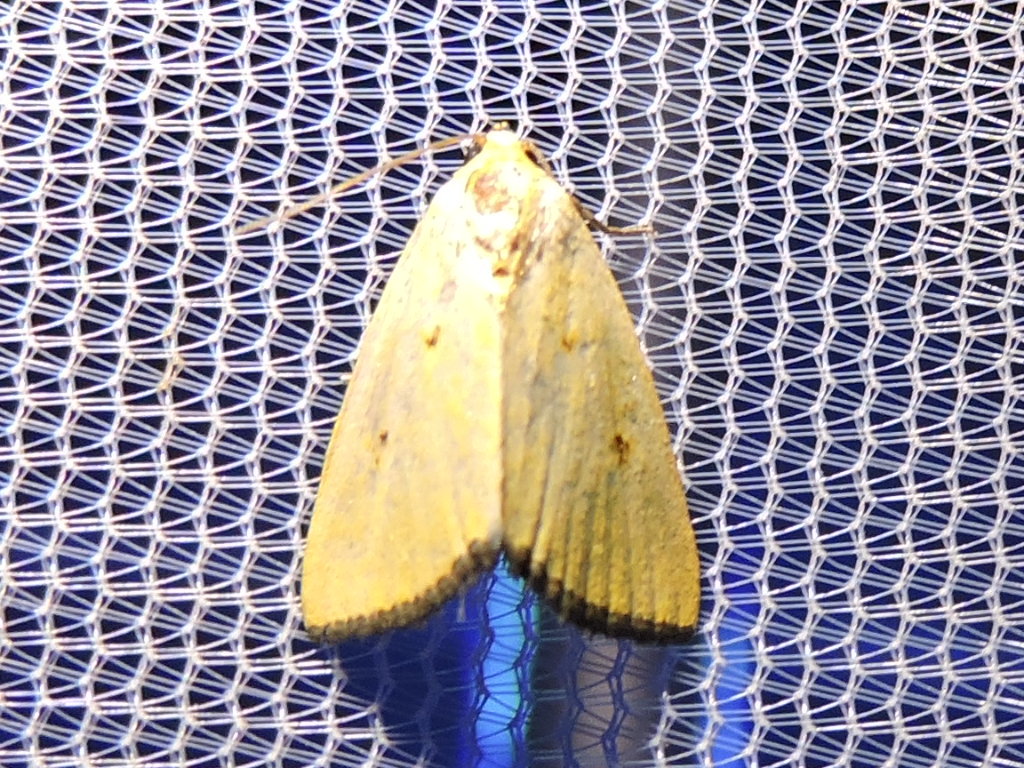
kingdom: Animalia
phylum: Arthropoda
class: Insecta
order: Lepidoptera
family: Noctuidae
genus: Marimatha
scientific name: Marimatha nigrofimbria
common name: Black-bordered lemon moth
